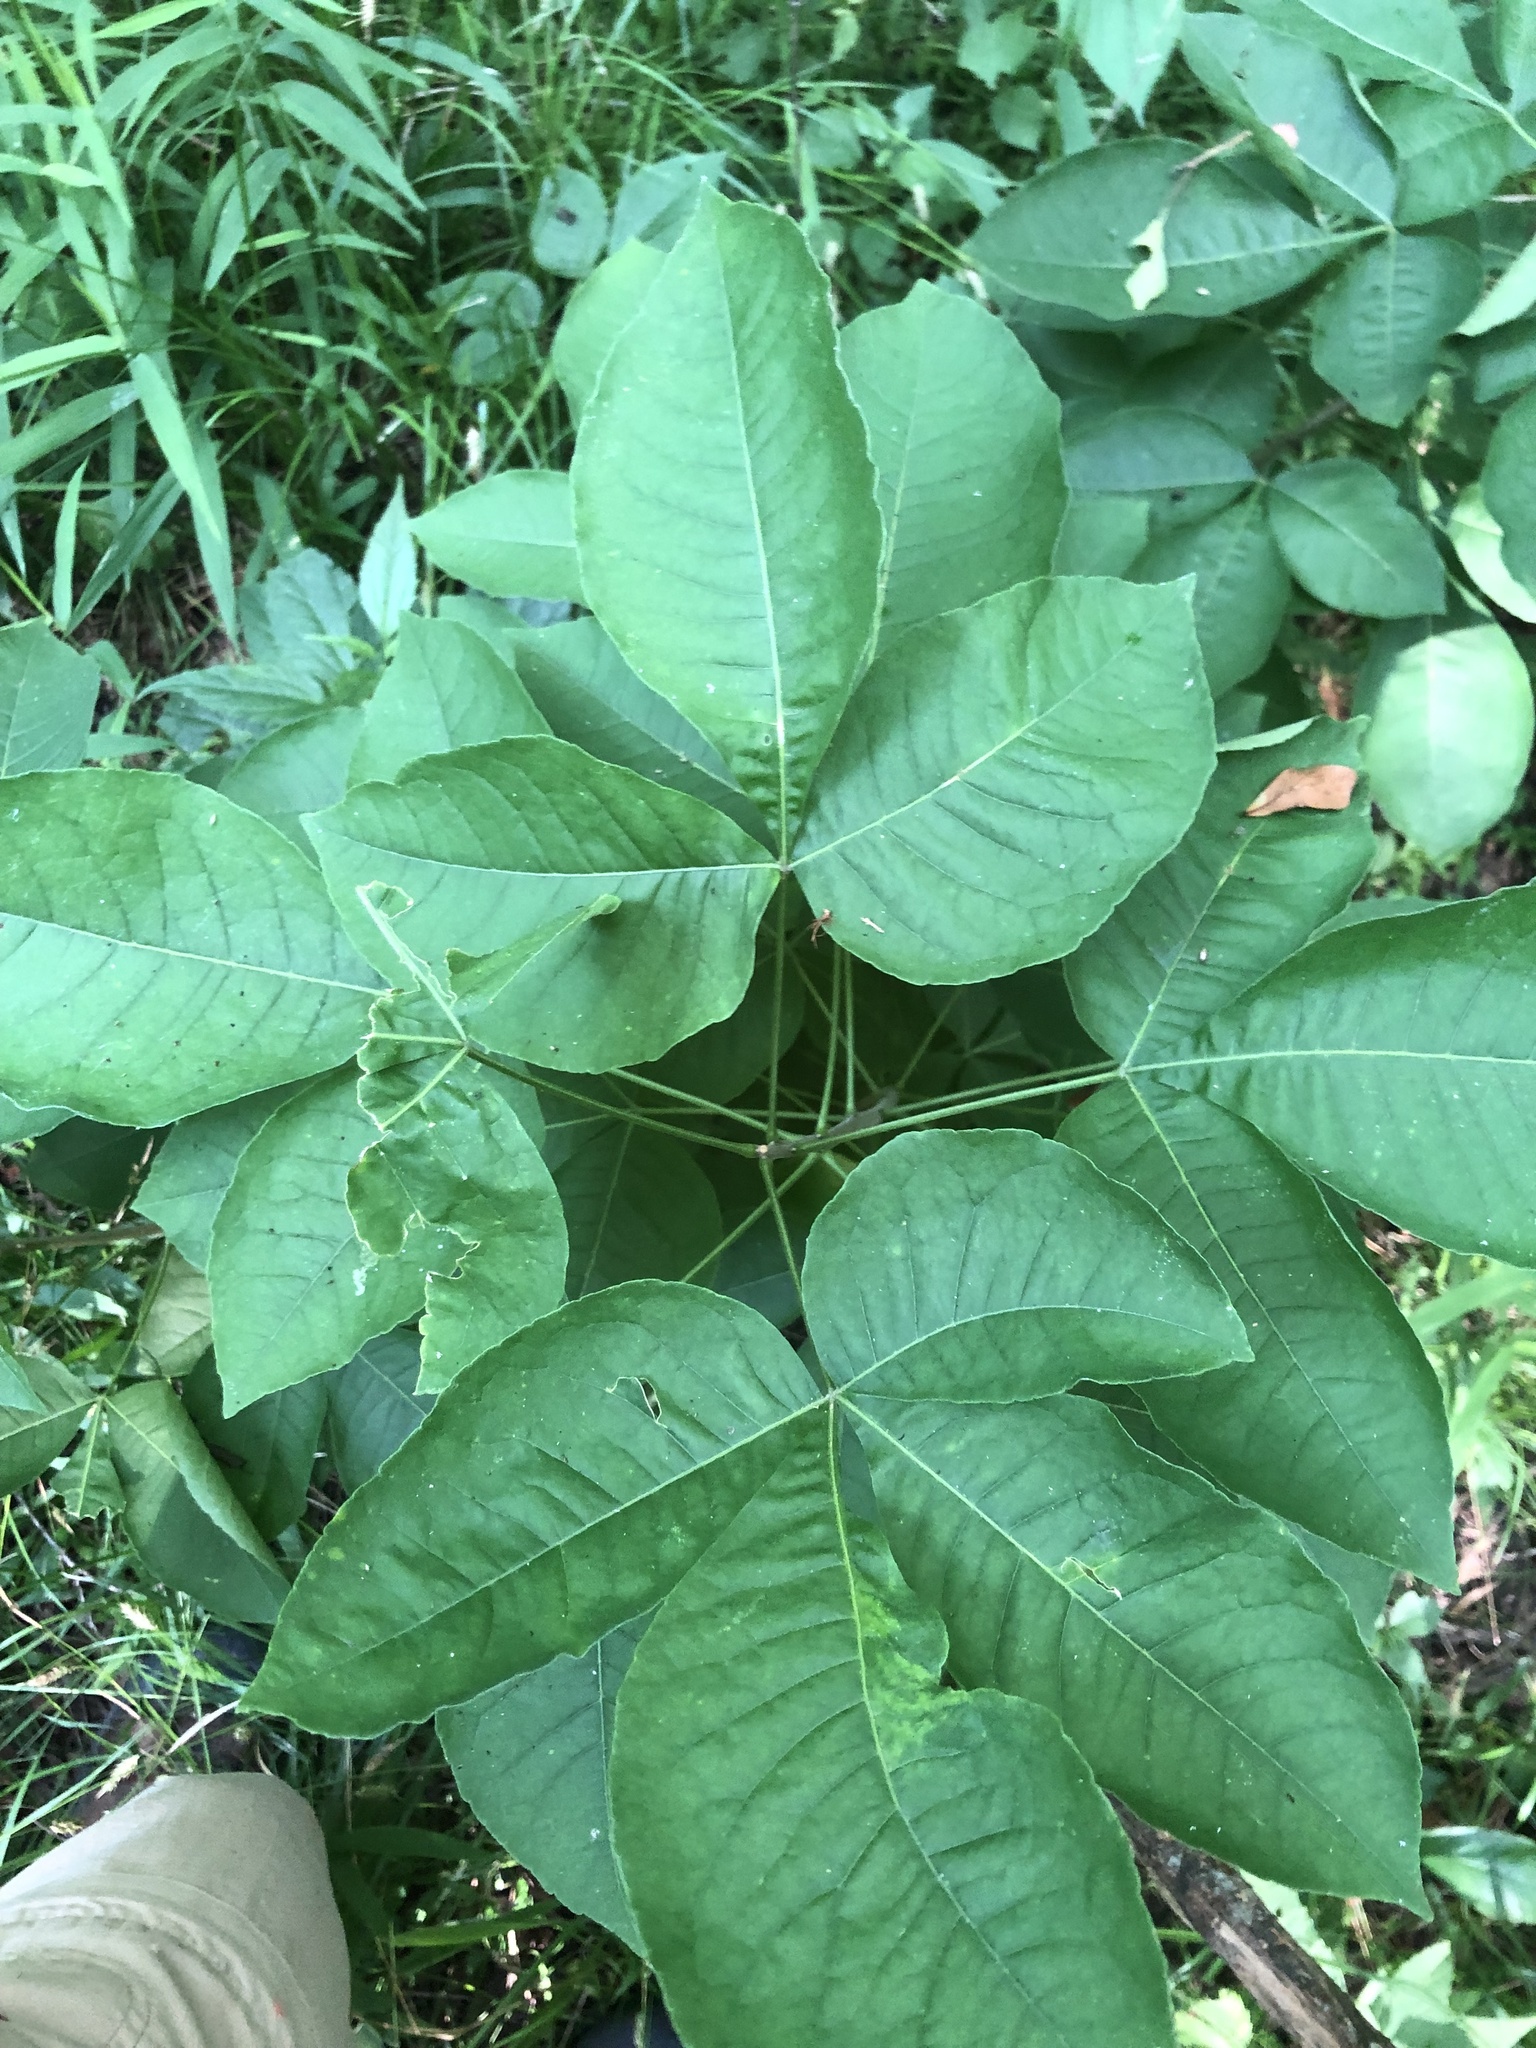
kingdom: Plantae
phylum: Tracheophyta
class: Magnoliopsida
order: Sapindales
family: Rutaceae
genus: Ptelea
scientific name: Ptelea trifoliata
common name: Common hop-tree
